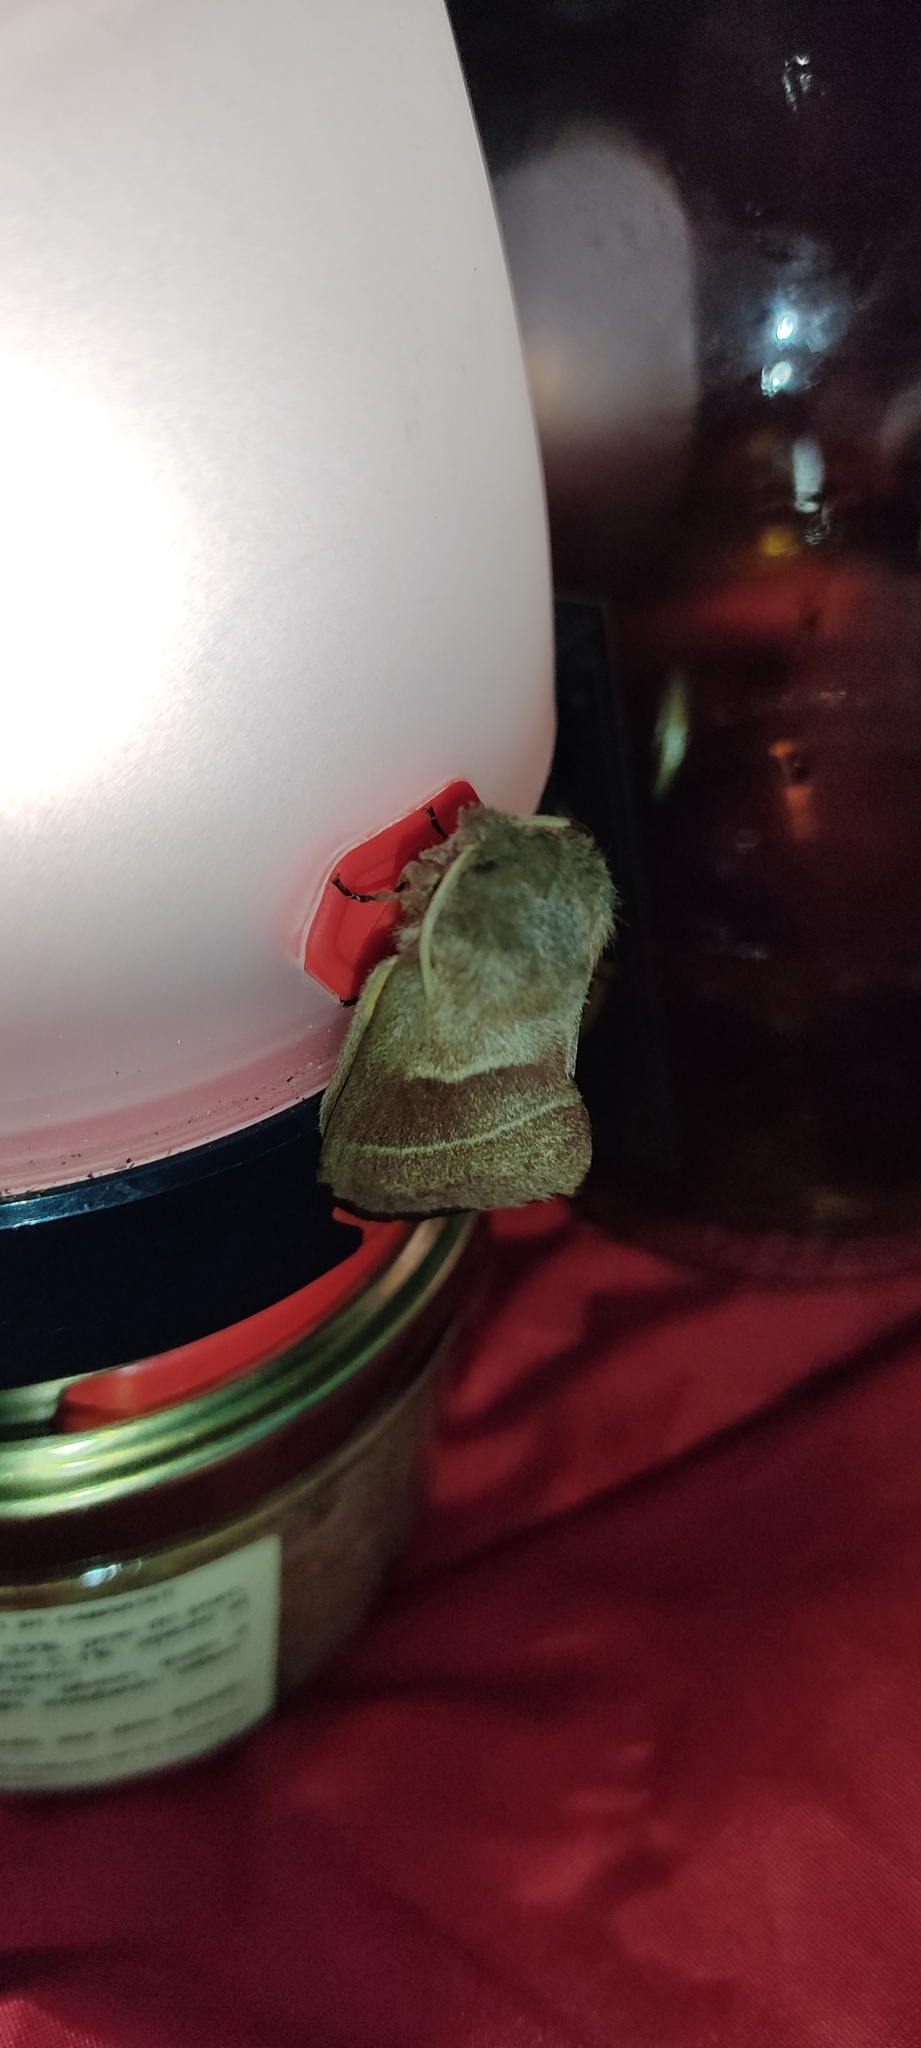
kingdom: Animalia
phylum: Arthropoda
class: Insecta
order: Lepidoptera
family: Lasiocampidae
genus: Macrothylacia
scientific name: Macrothylacia rubi
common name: Fox moth
